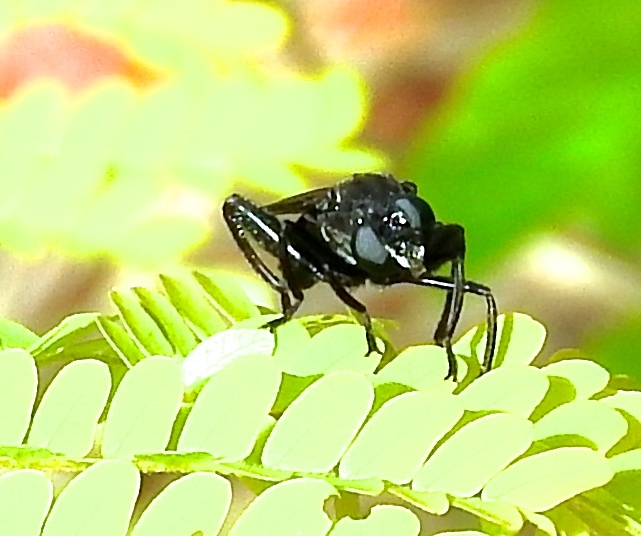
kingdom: Animalia
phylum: Arthropoda
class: Insecta
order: Diptera
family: Mydidae
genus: Mydas
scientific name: Mydas
